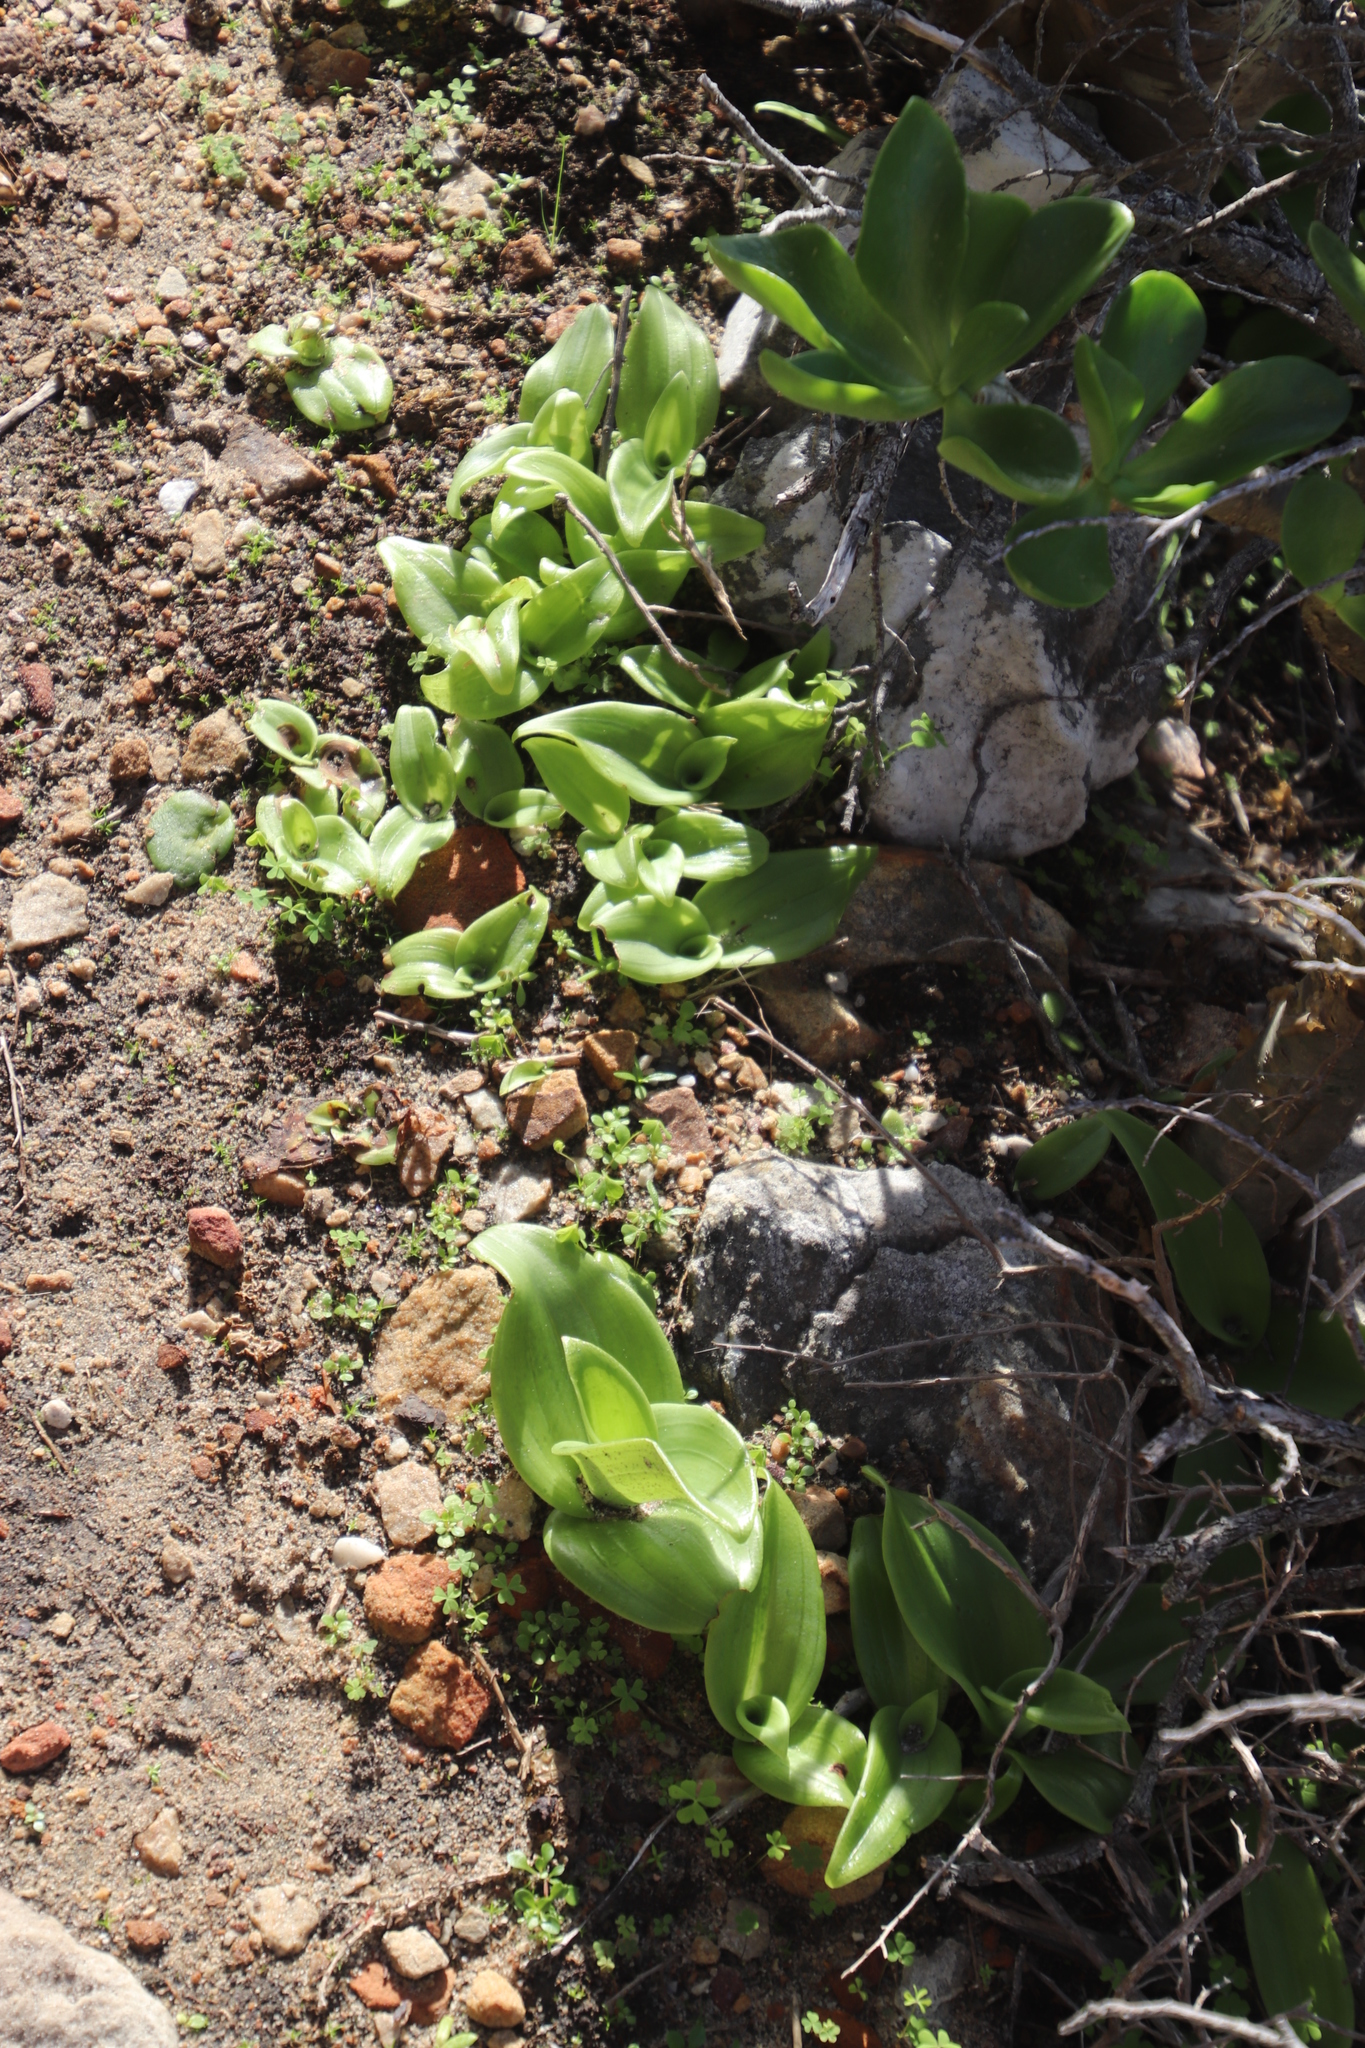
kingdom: Plantae
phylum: Tracheophyta
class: Liliopsida
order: Asparagales
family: Orchidaceae
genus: Satyrium
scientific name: Satyrium odorum
